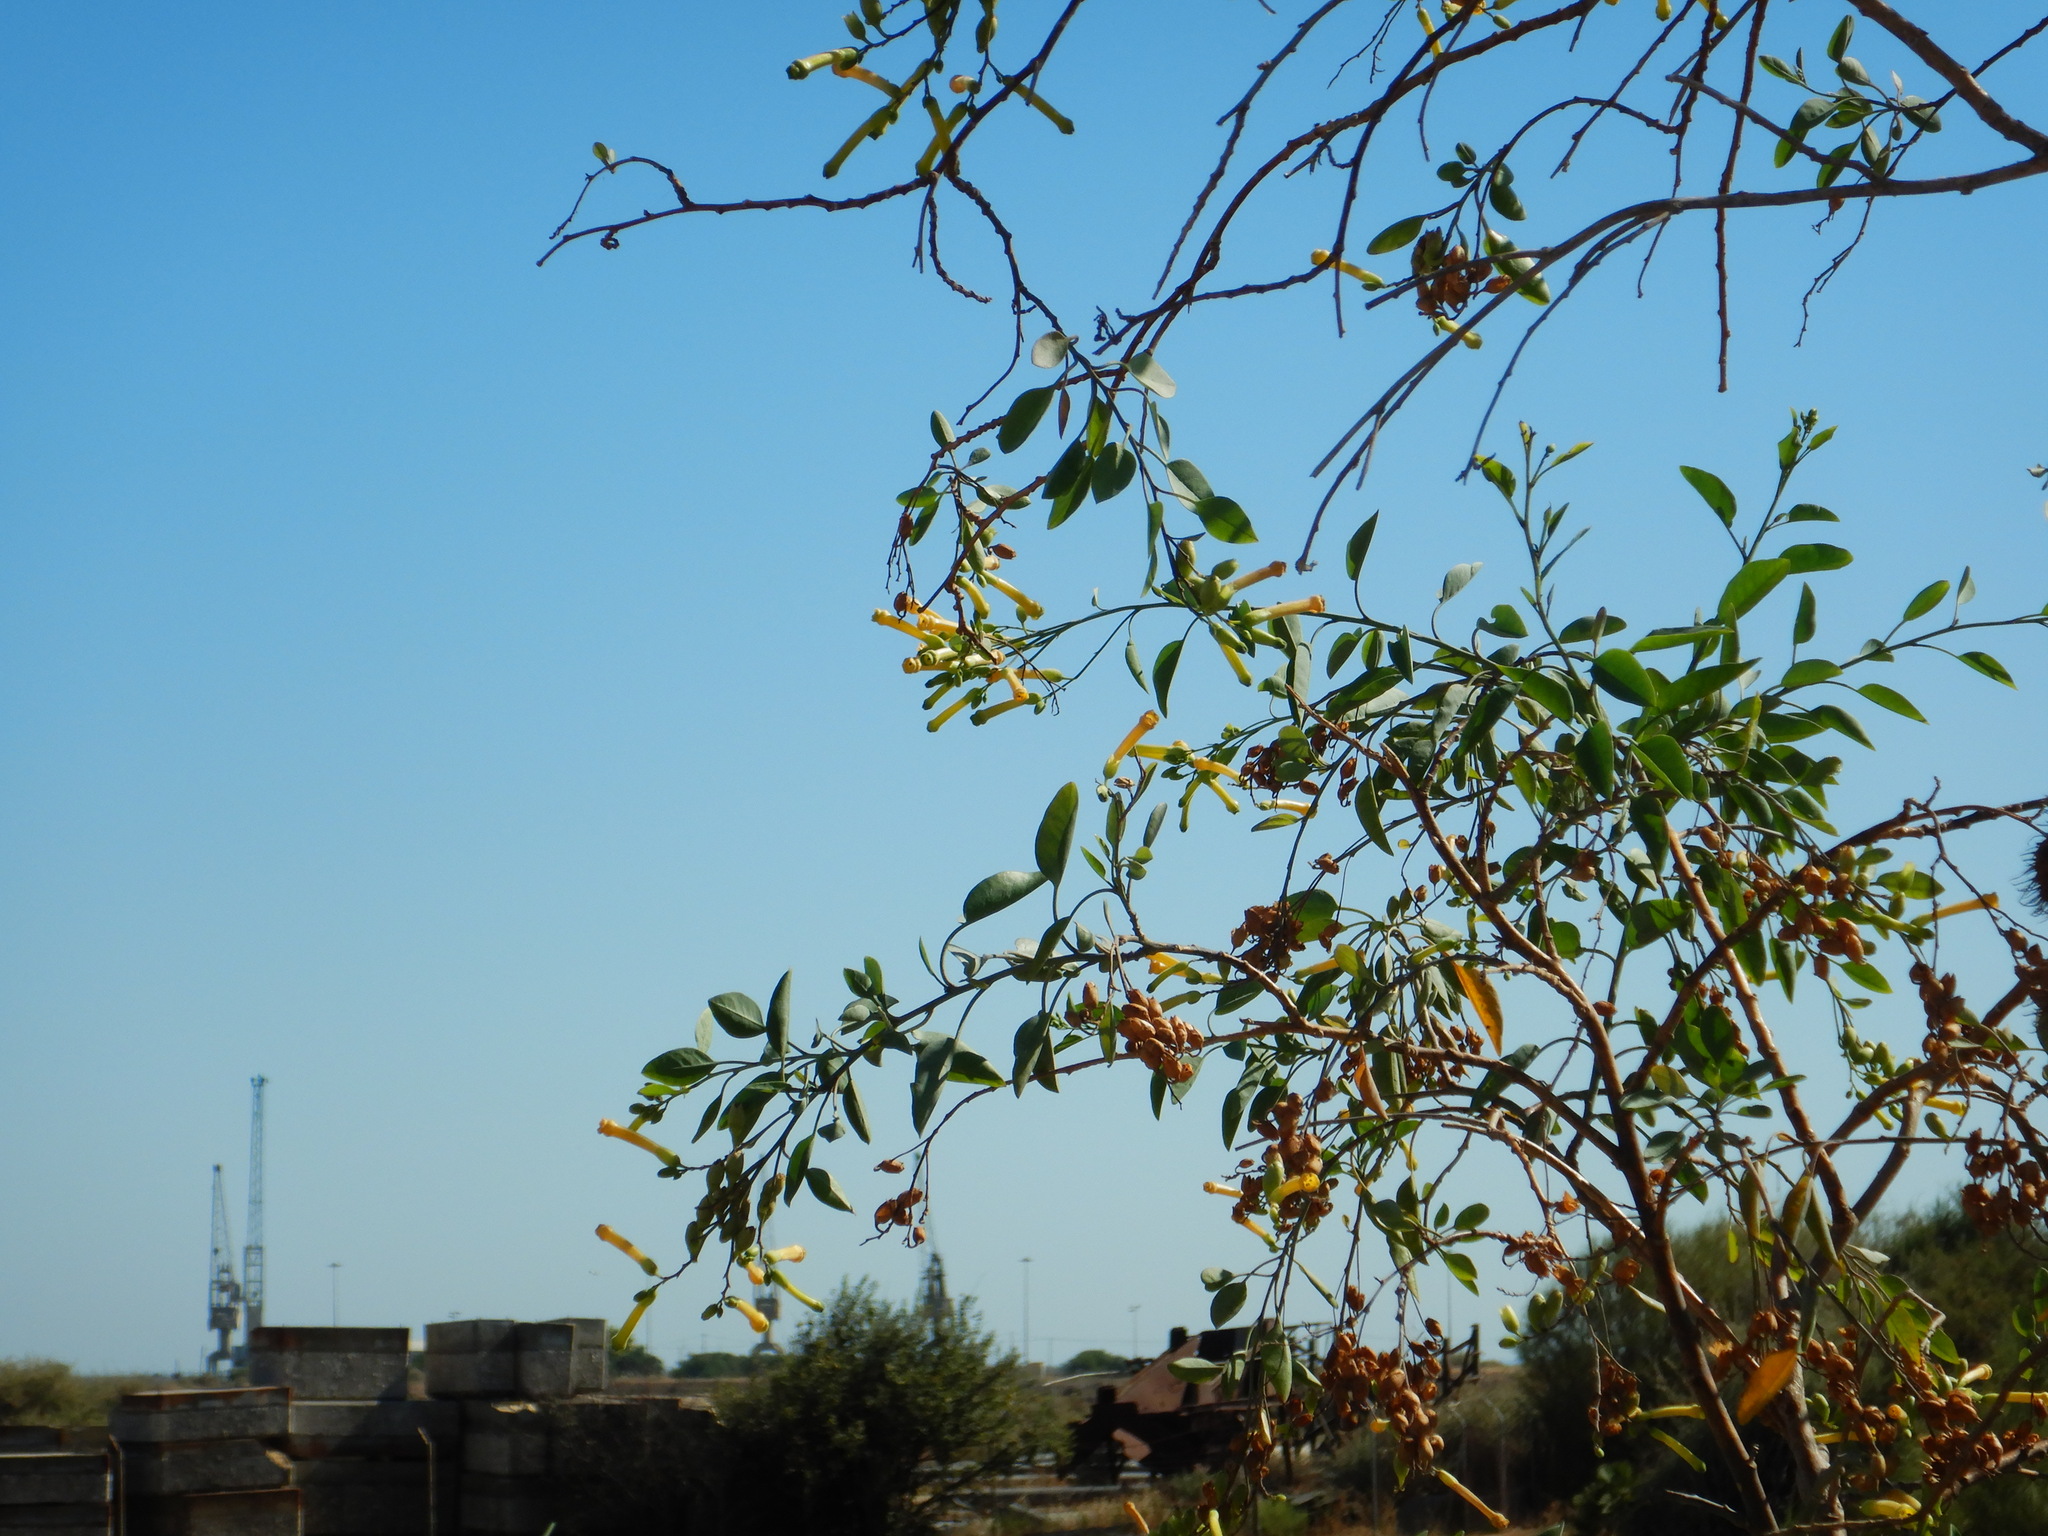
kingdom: Plantae
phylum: Tracheophyta
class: Magnoliopsida
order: Solanales
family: Solanaceae
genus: Nicotiana
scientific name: Nicotiana glauca
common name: Tree tobacco
